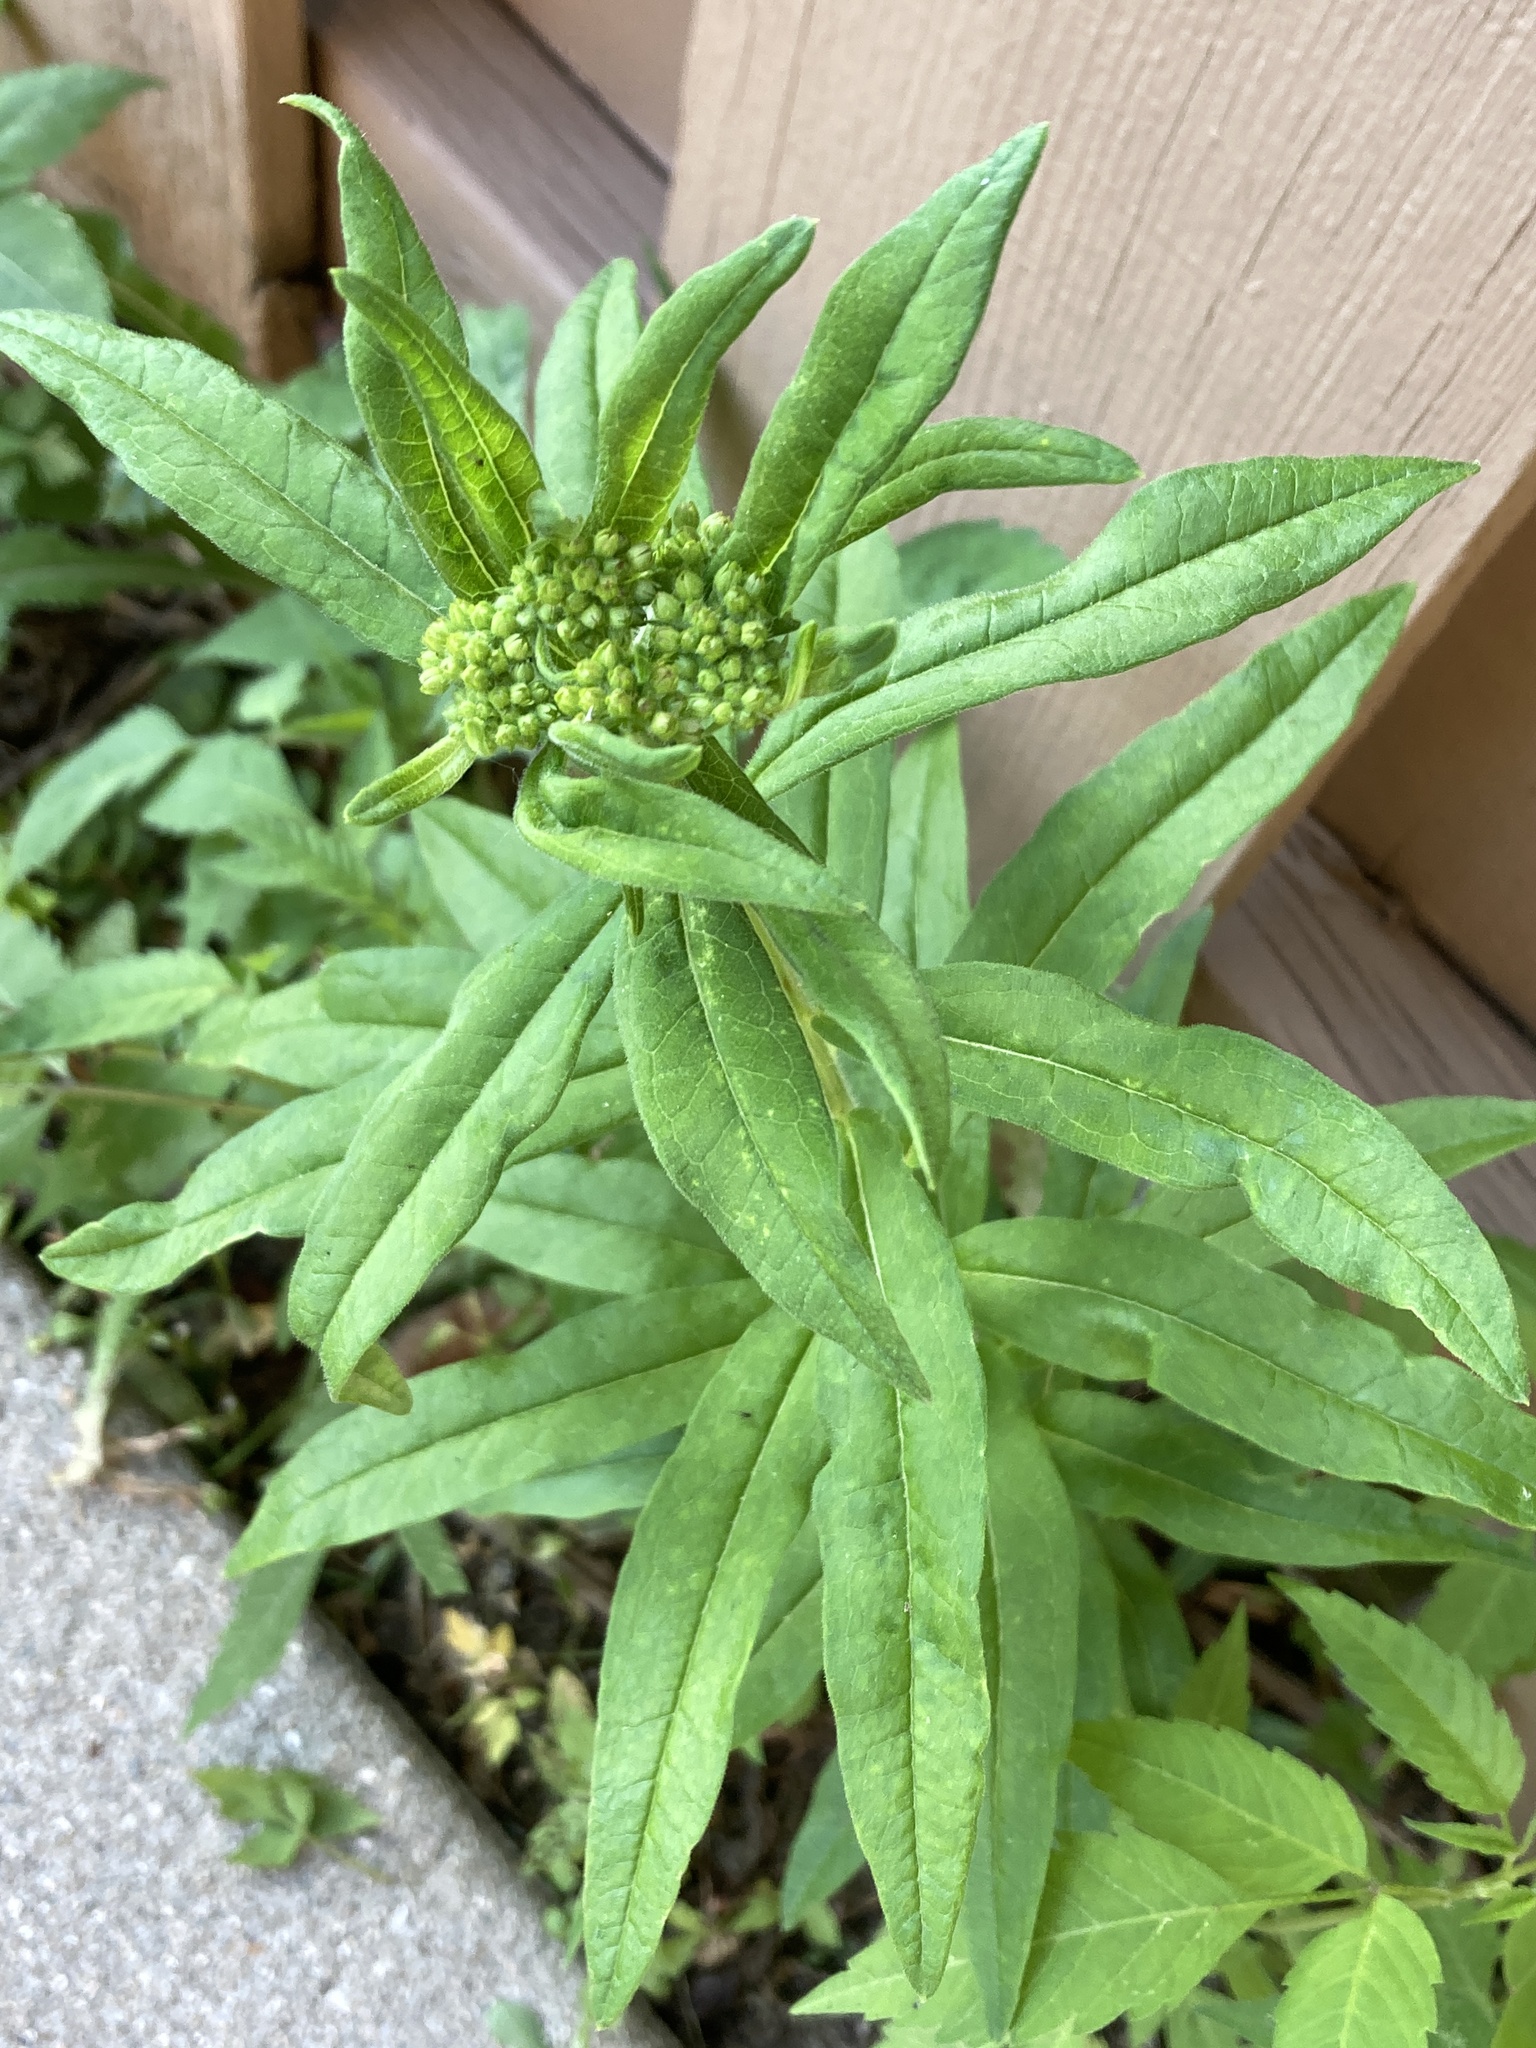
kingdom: Plantae
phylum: Tracheophyta
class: Magnoliopsida
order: Gentianales
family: Apocynaceae
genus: Asclepias
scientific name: Asclepias tuberosa
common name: Butterfly milkweed
